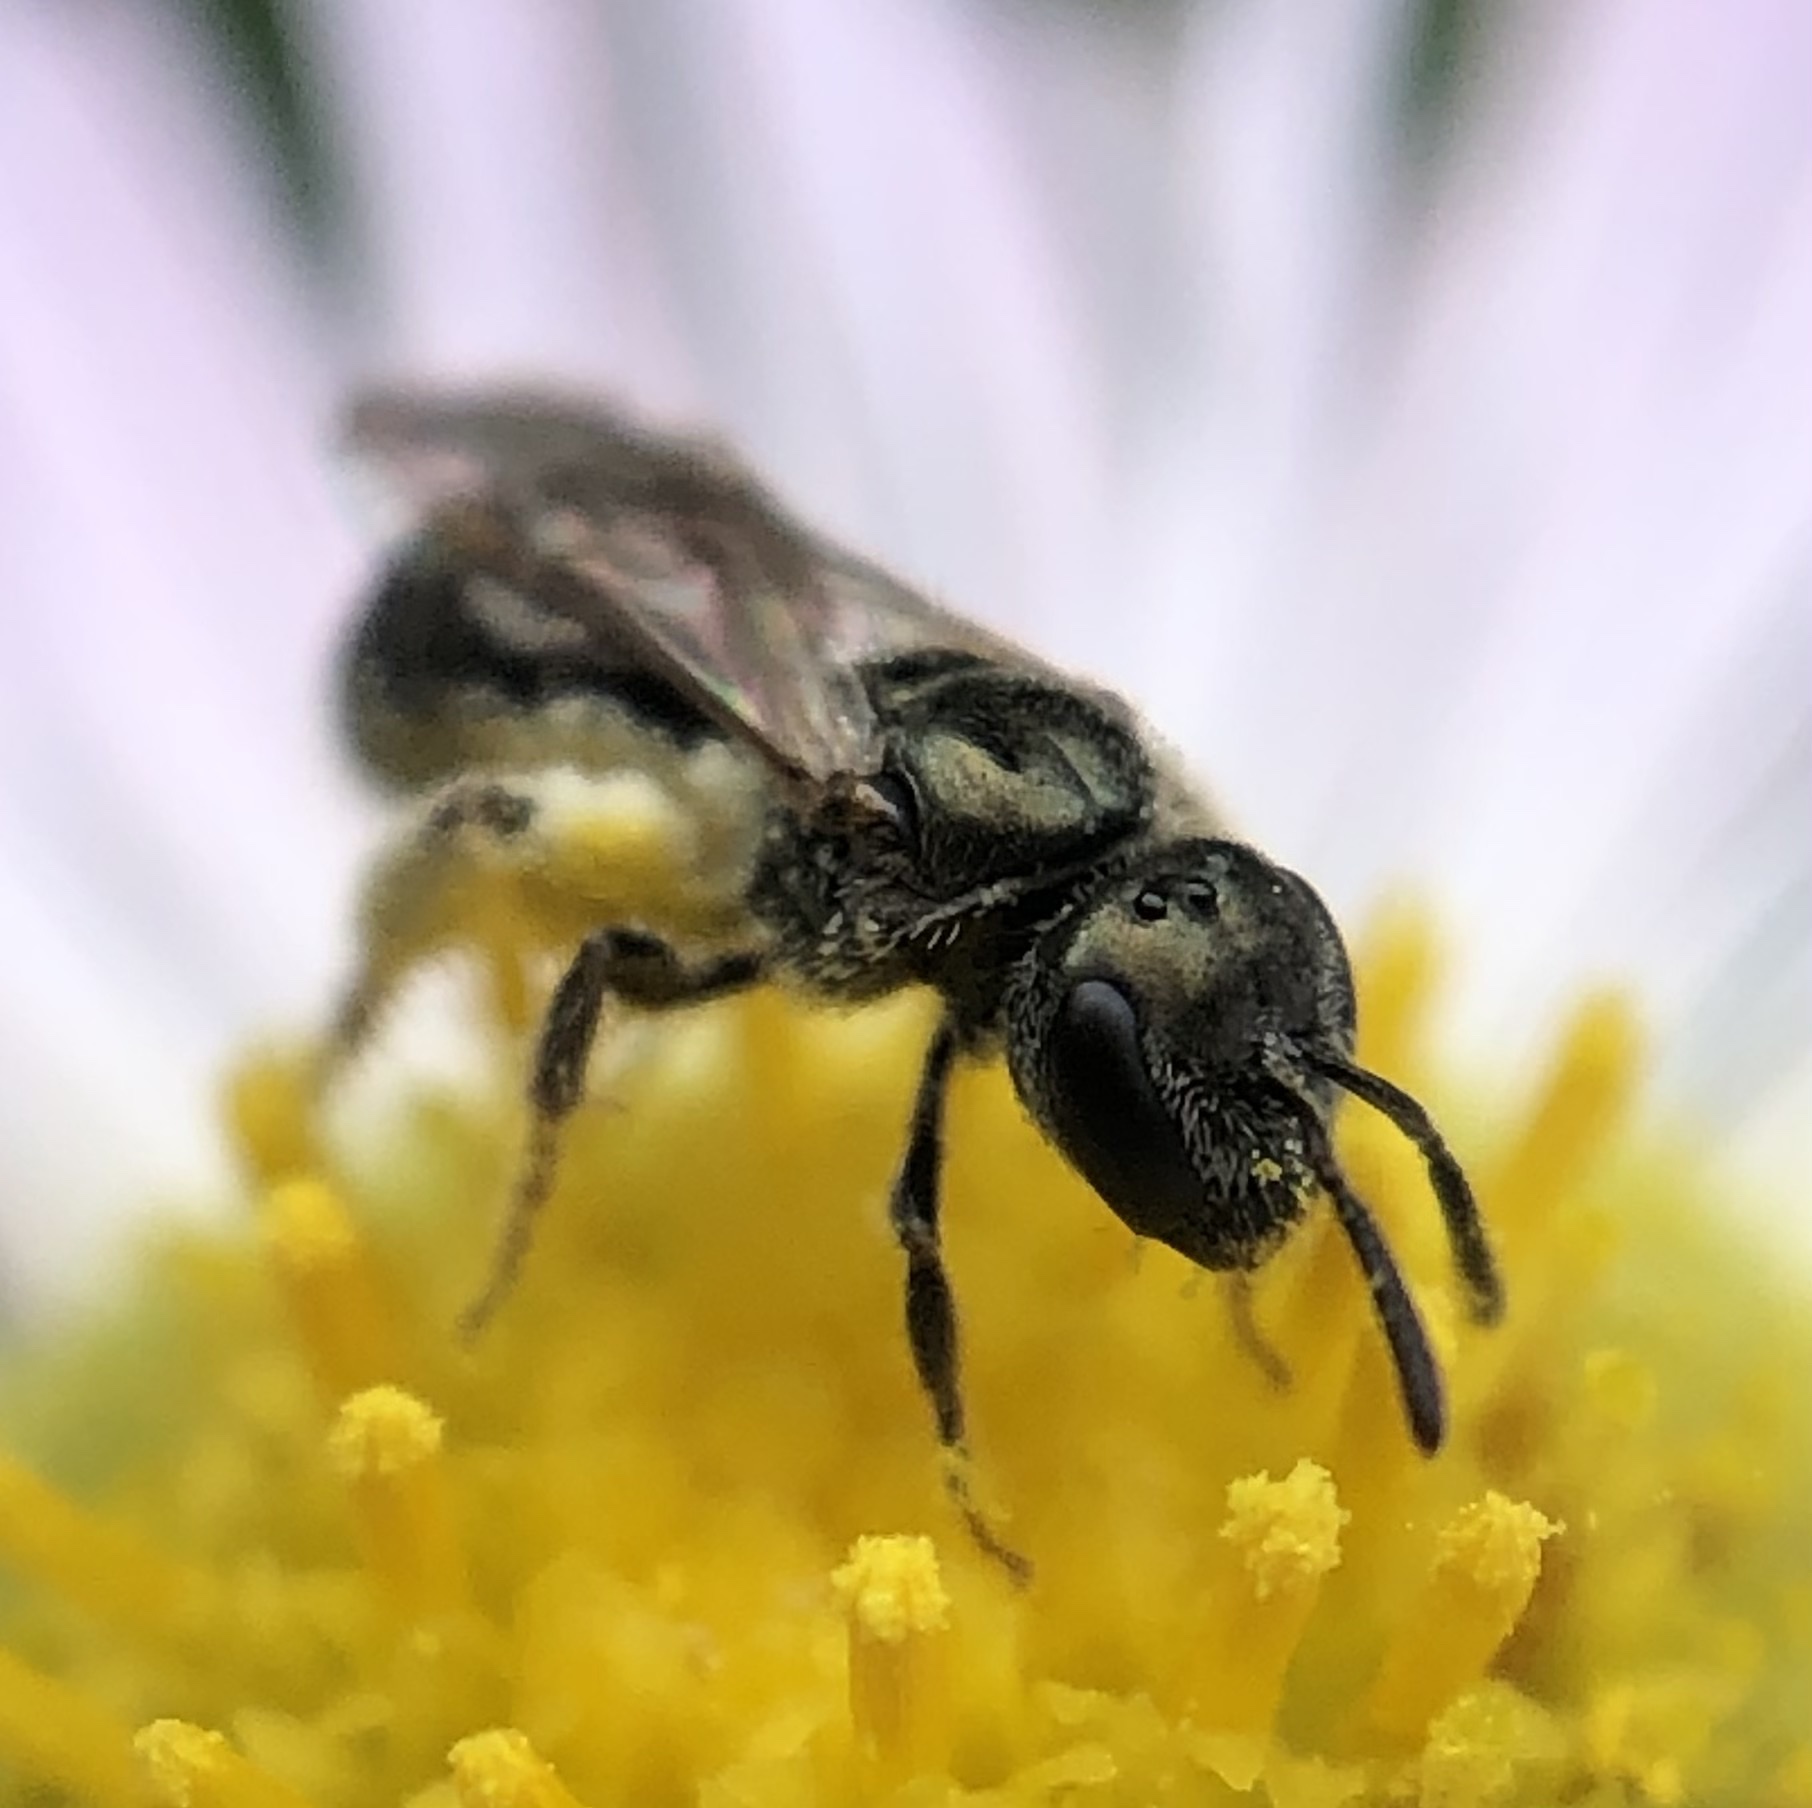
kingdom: Animalia
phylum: Arthropoda
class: Insecta
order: Hymenoptera
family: Halictidae
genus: Lasioglossum
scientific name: Lasioglossum imitatum
